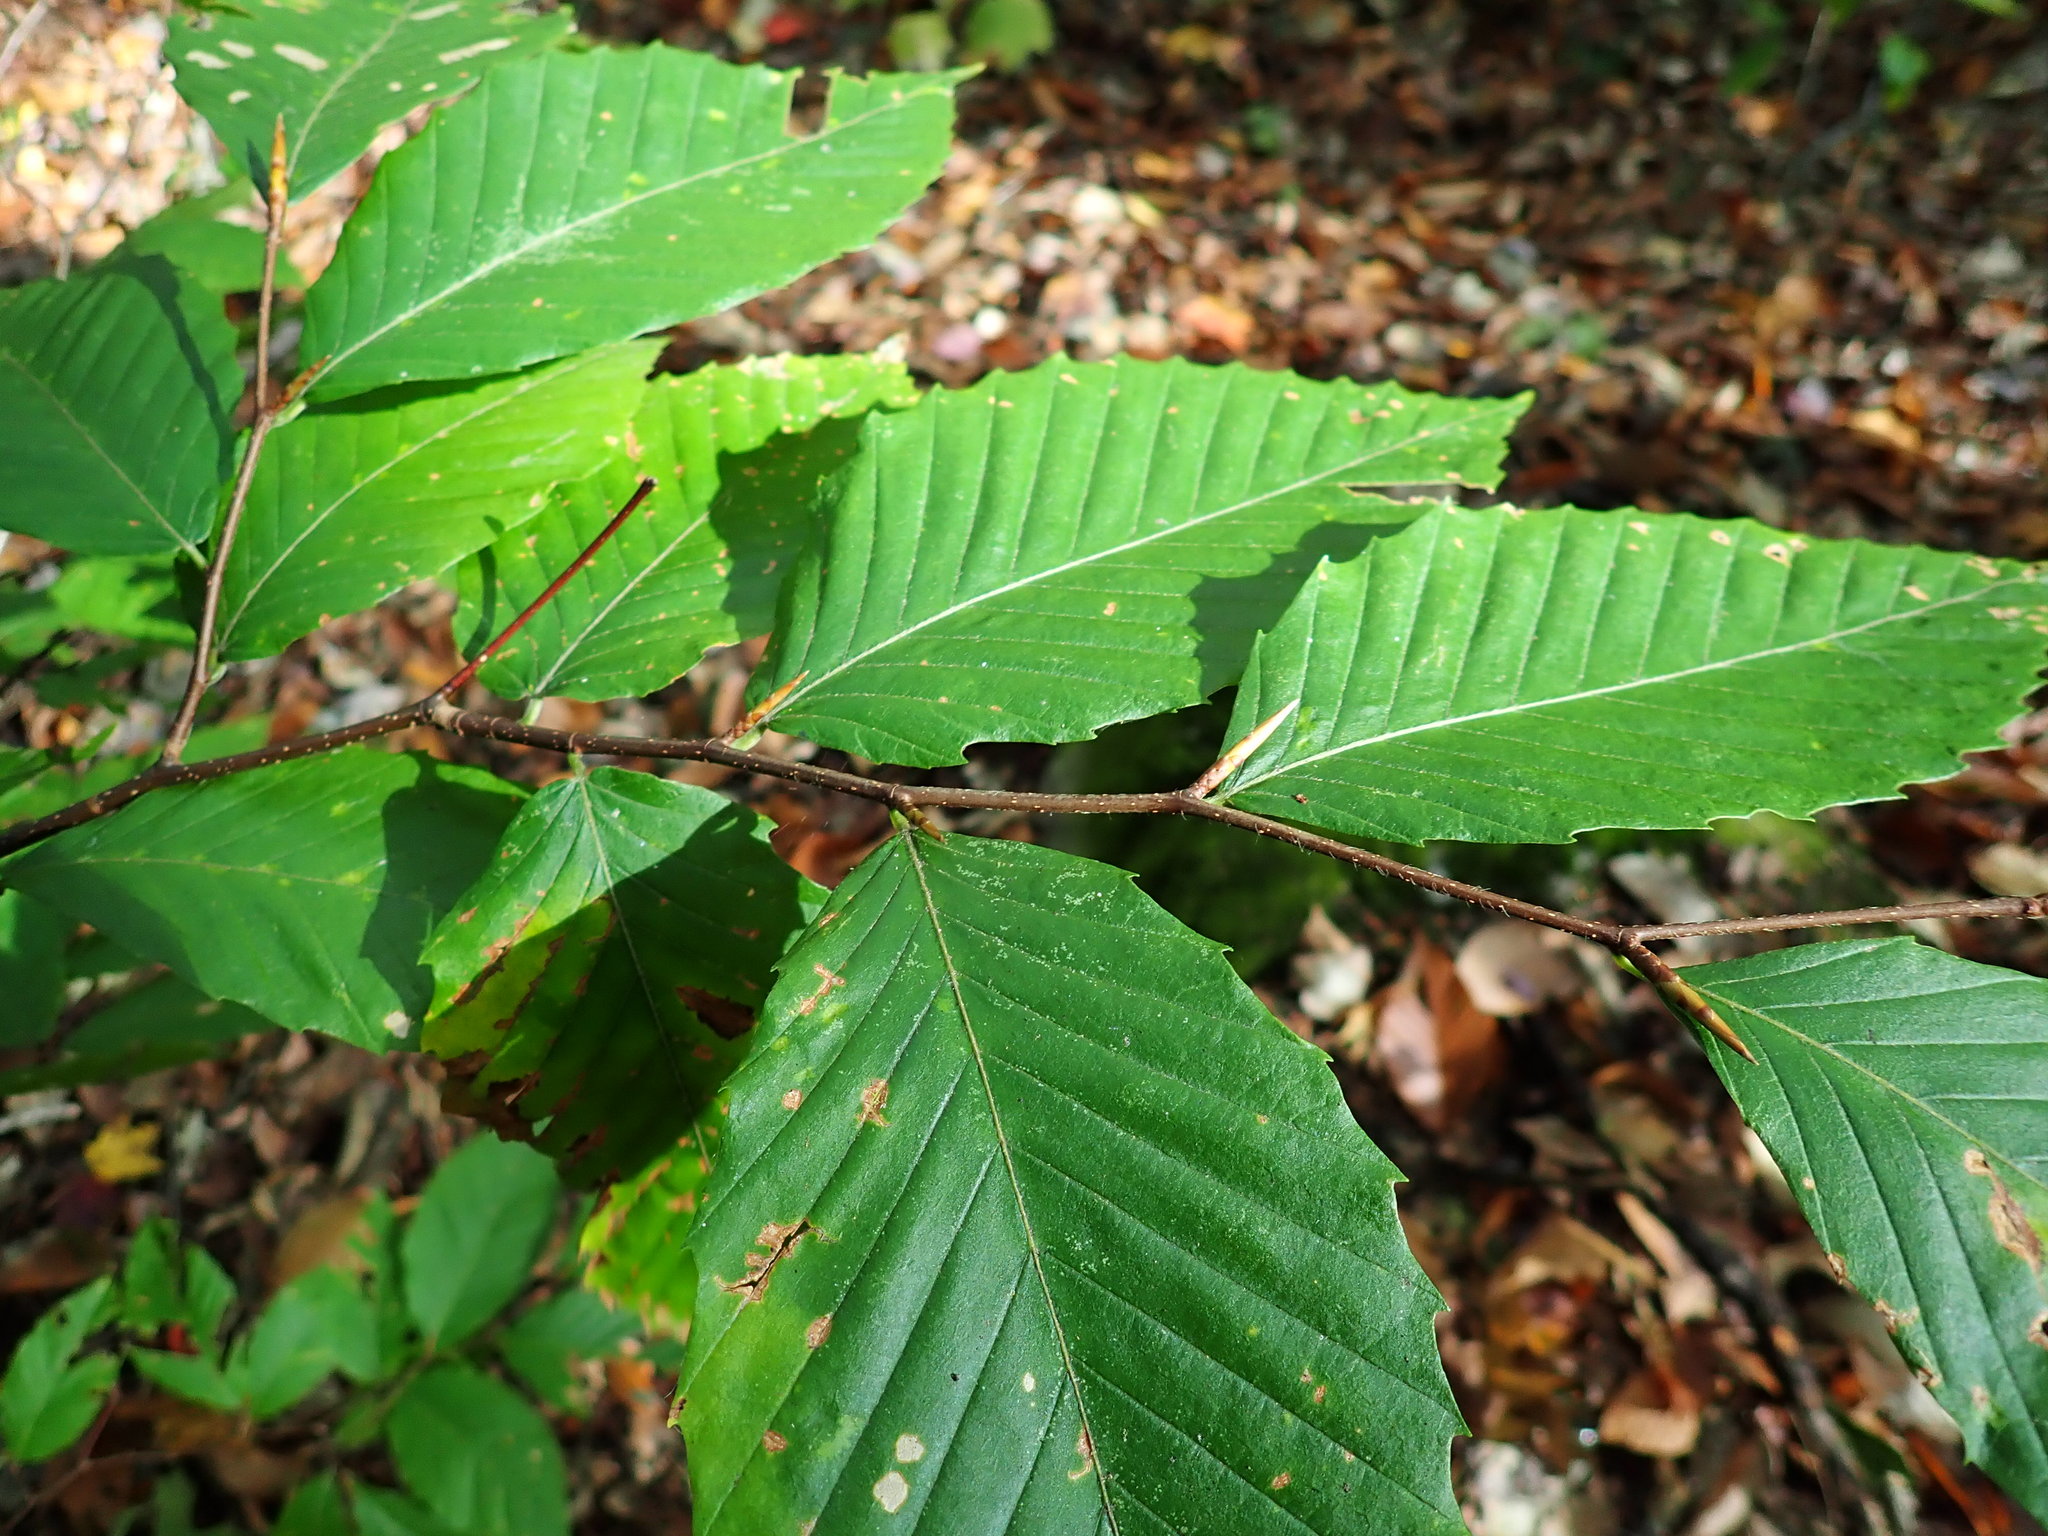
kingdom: Plantae
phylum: Tracheophyta
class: Magnoliopsida
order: Fagales
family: Fagaceae
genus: Fagus
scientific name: Fagus grandifolia
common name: American beech
